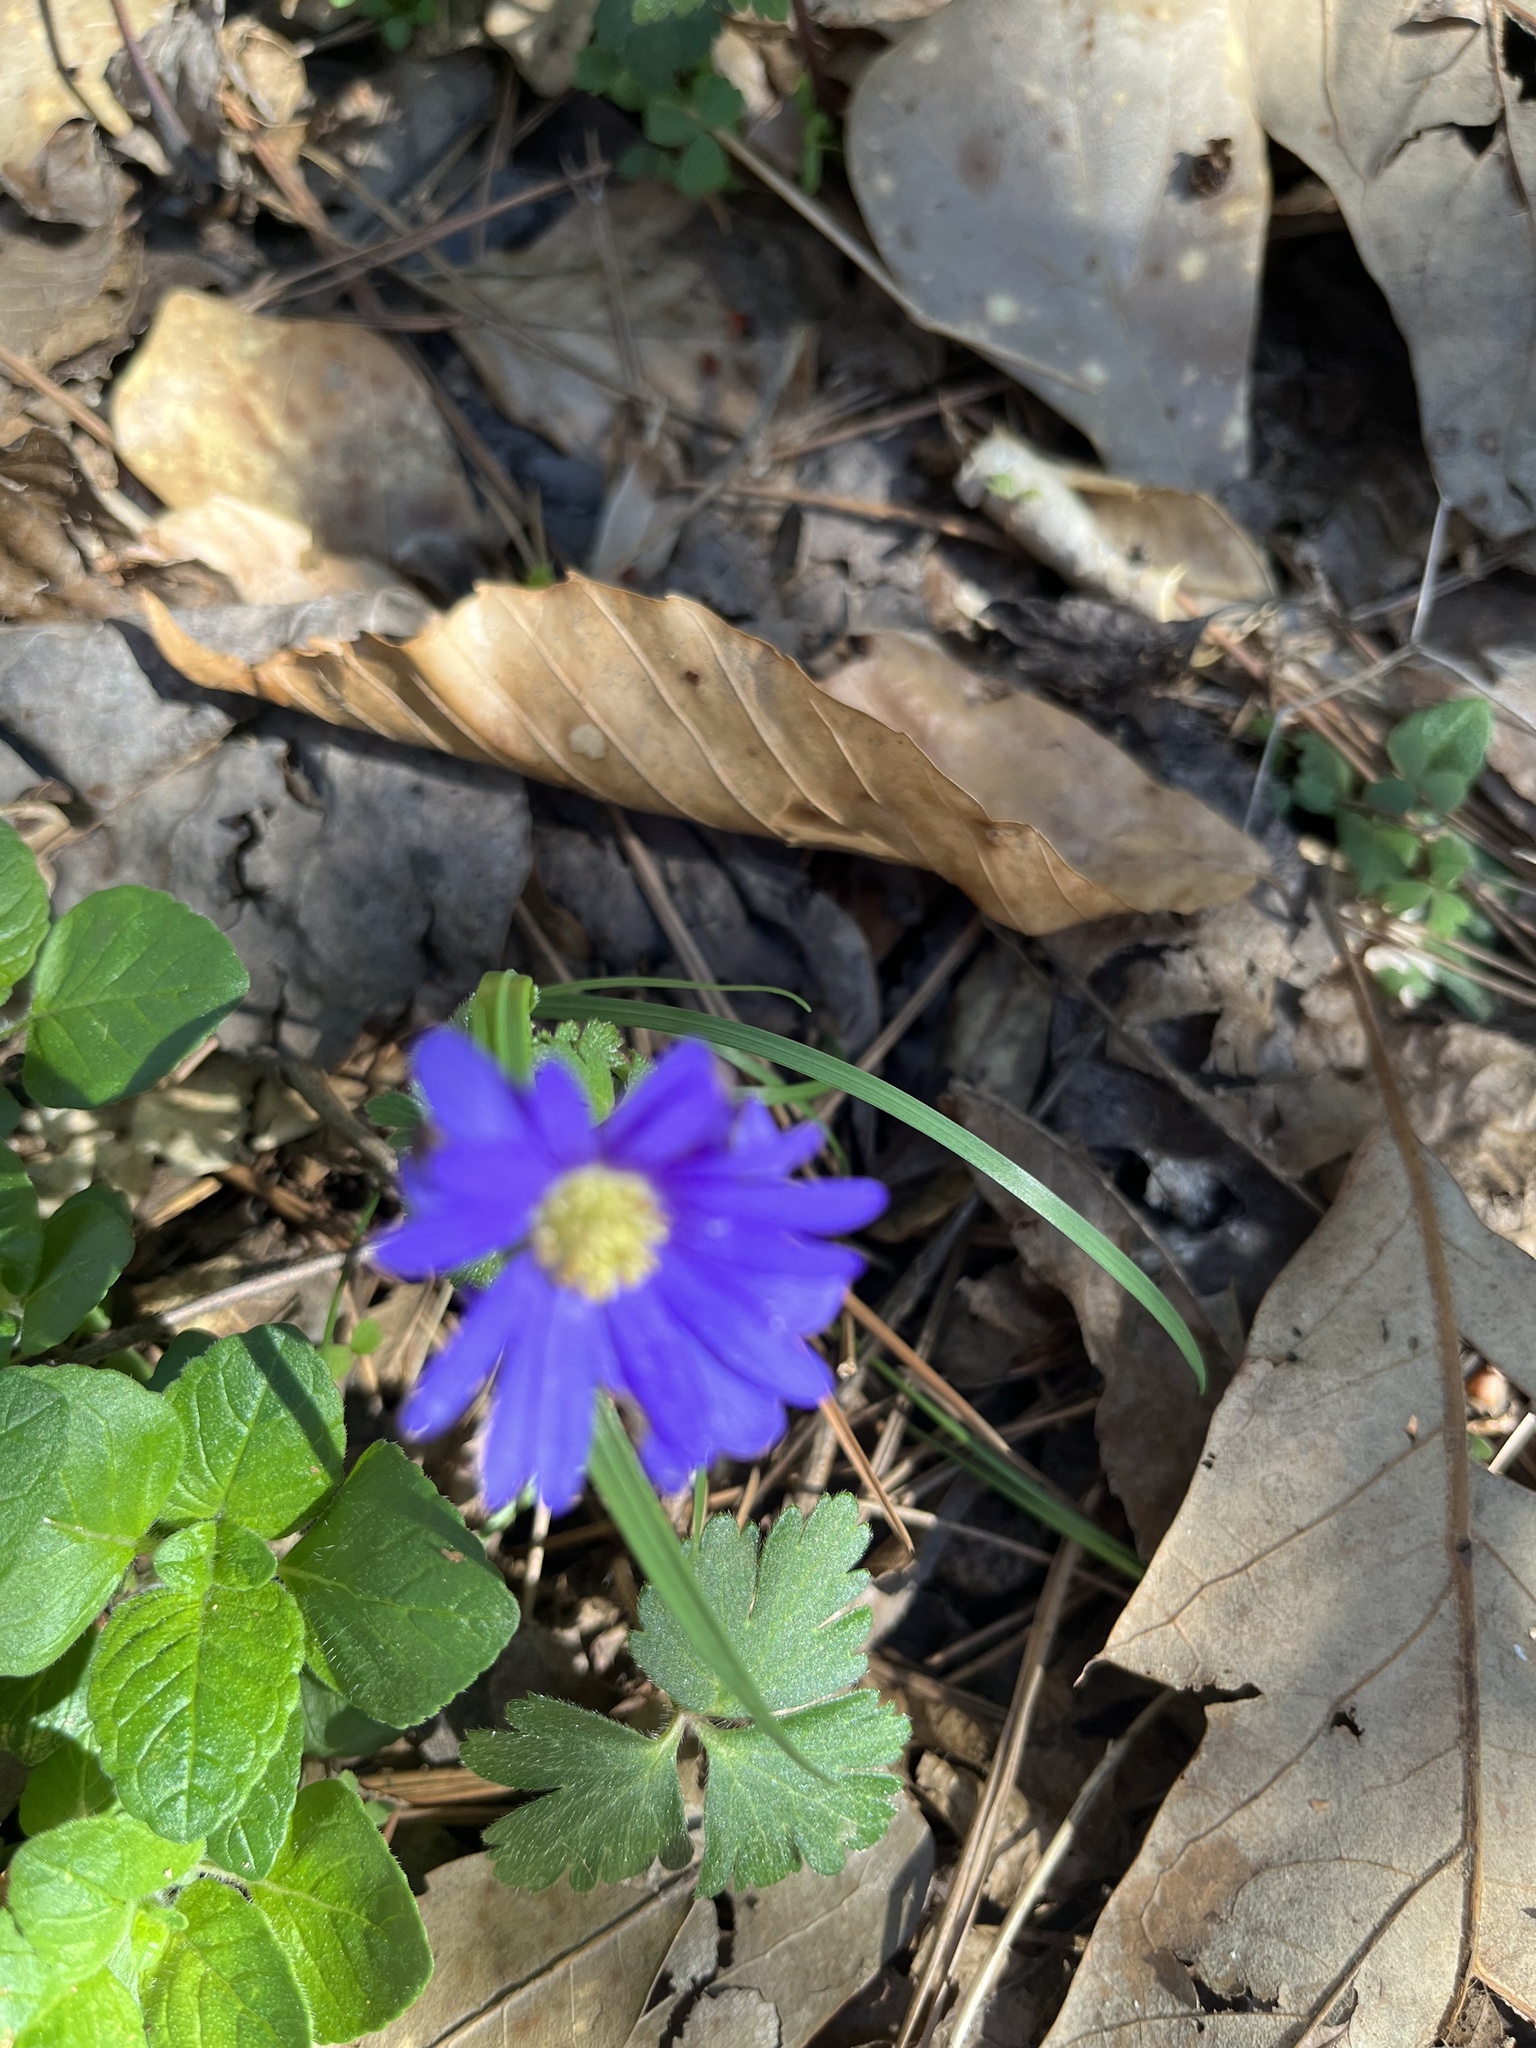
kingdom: Plantae
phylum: Tracheophyta
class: Magnoliopsida
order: Ranunculales
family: Ranunculaceae
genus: Anemone
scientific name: Anemone blanda
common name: Balkan anemone
